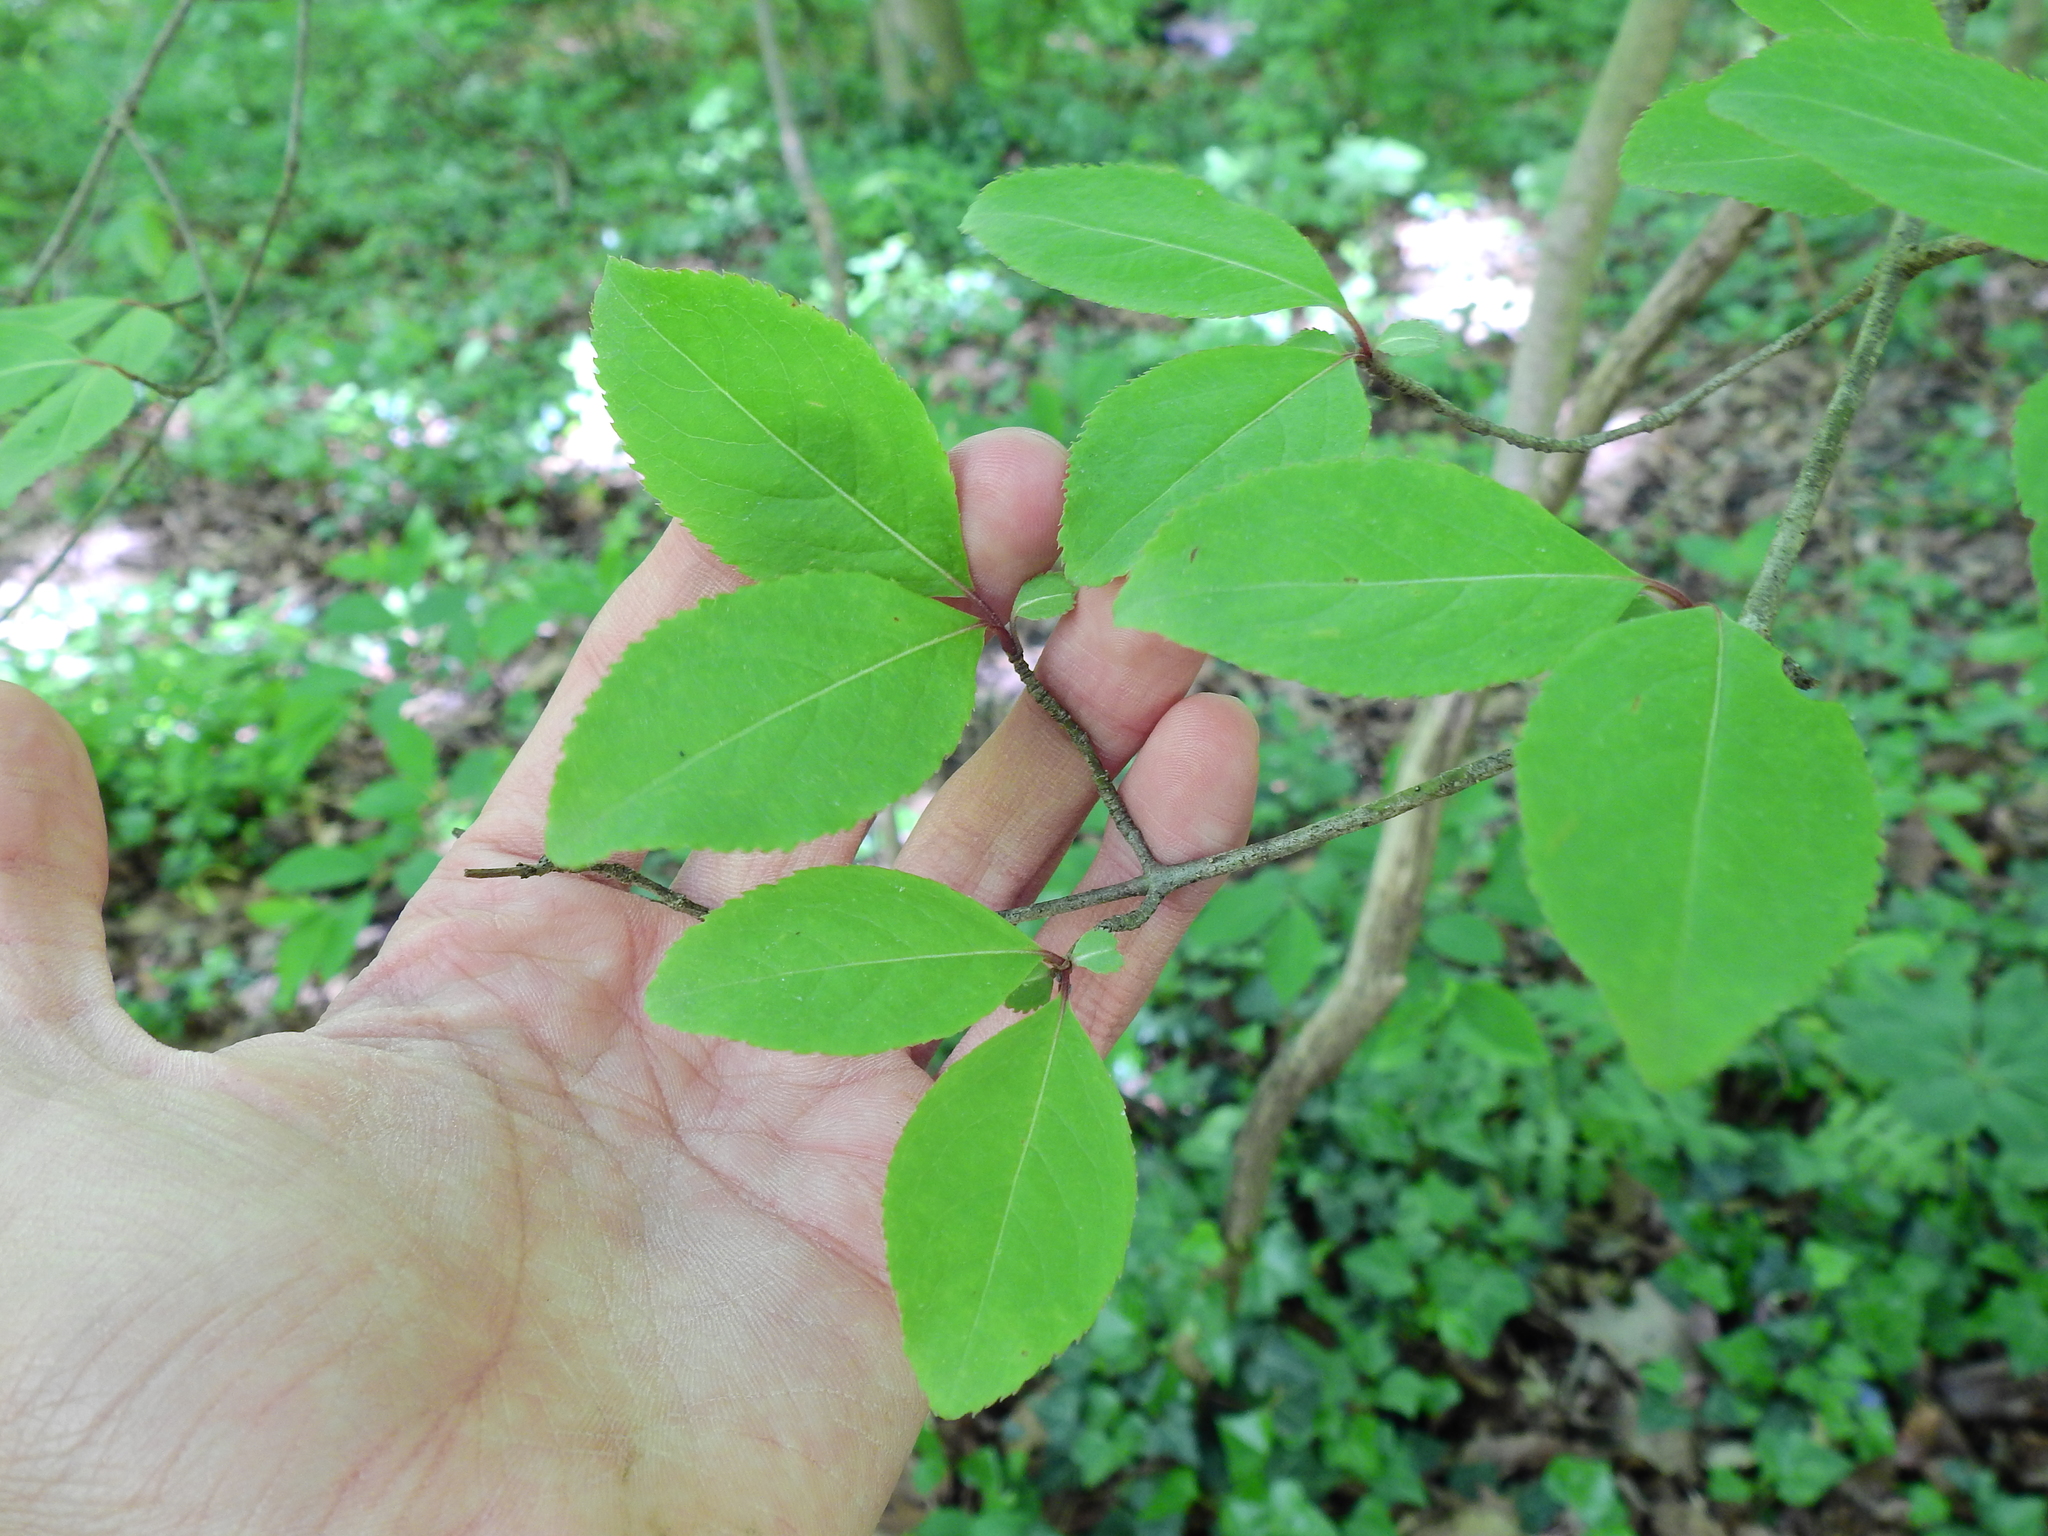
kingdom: Plantae
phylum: Tracheophyta
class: Magnoliopsida
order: Dipsacales
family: Viburnaceae
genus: Viburnum
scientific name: Viburnum prunifolium
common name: Black haw
